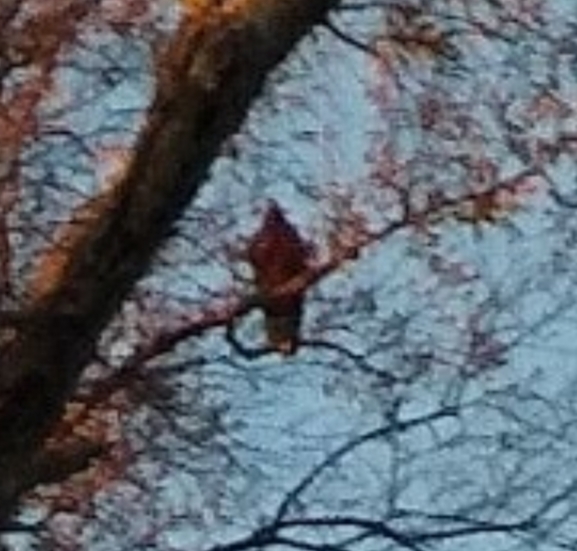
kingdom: Animalia
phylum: Chordata
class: Aves
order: Accipitriformes
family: Cathartidae
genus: Cathartes
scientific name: Cathartes aura
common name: Turkey vulture
